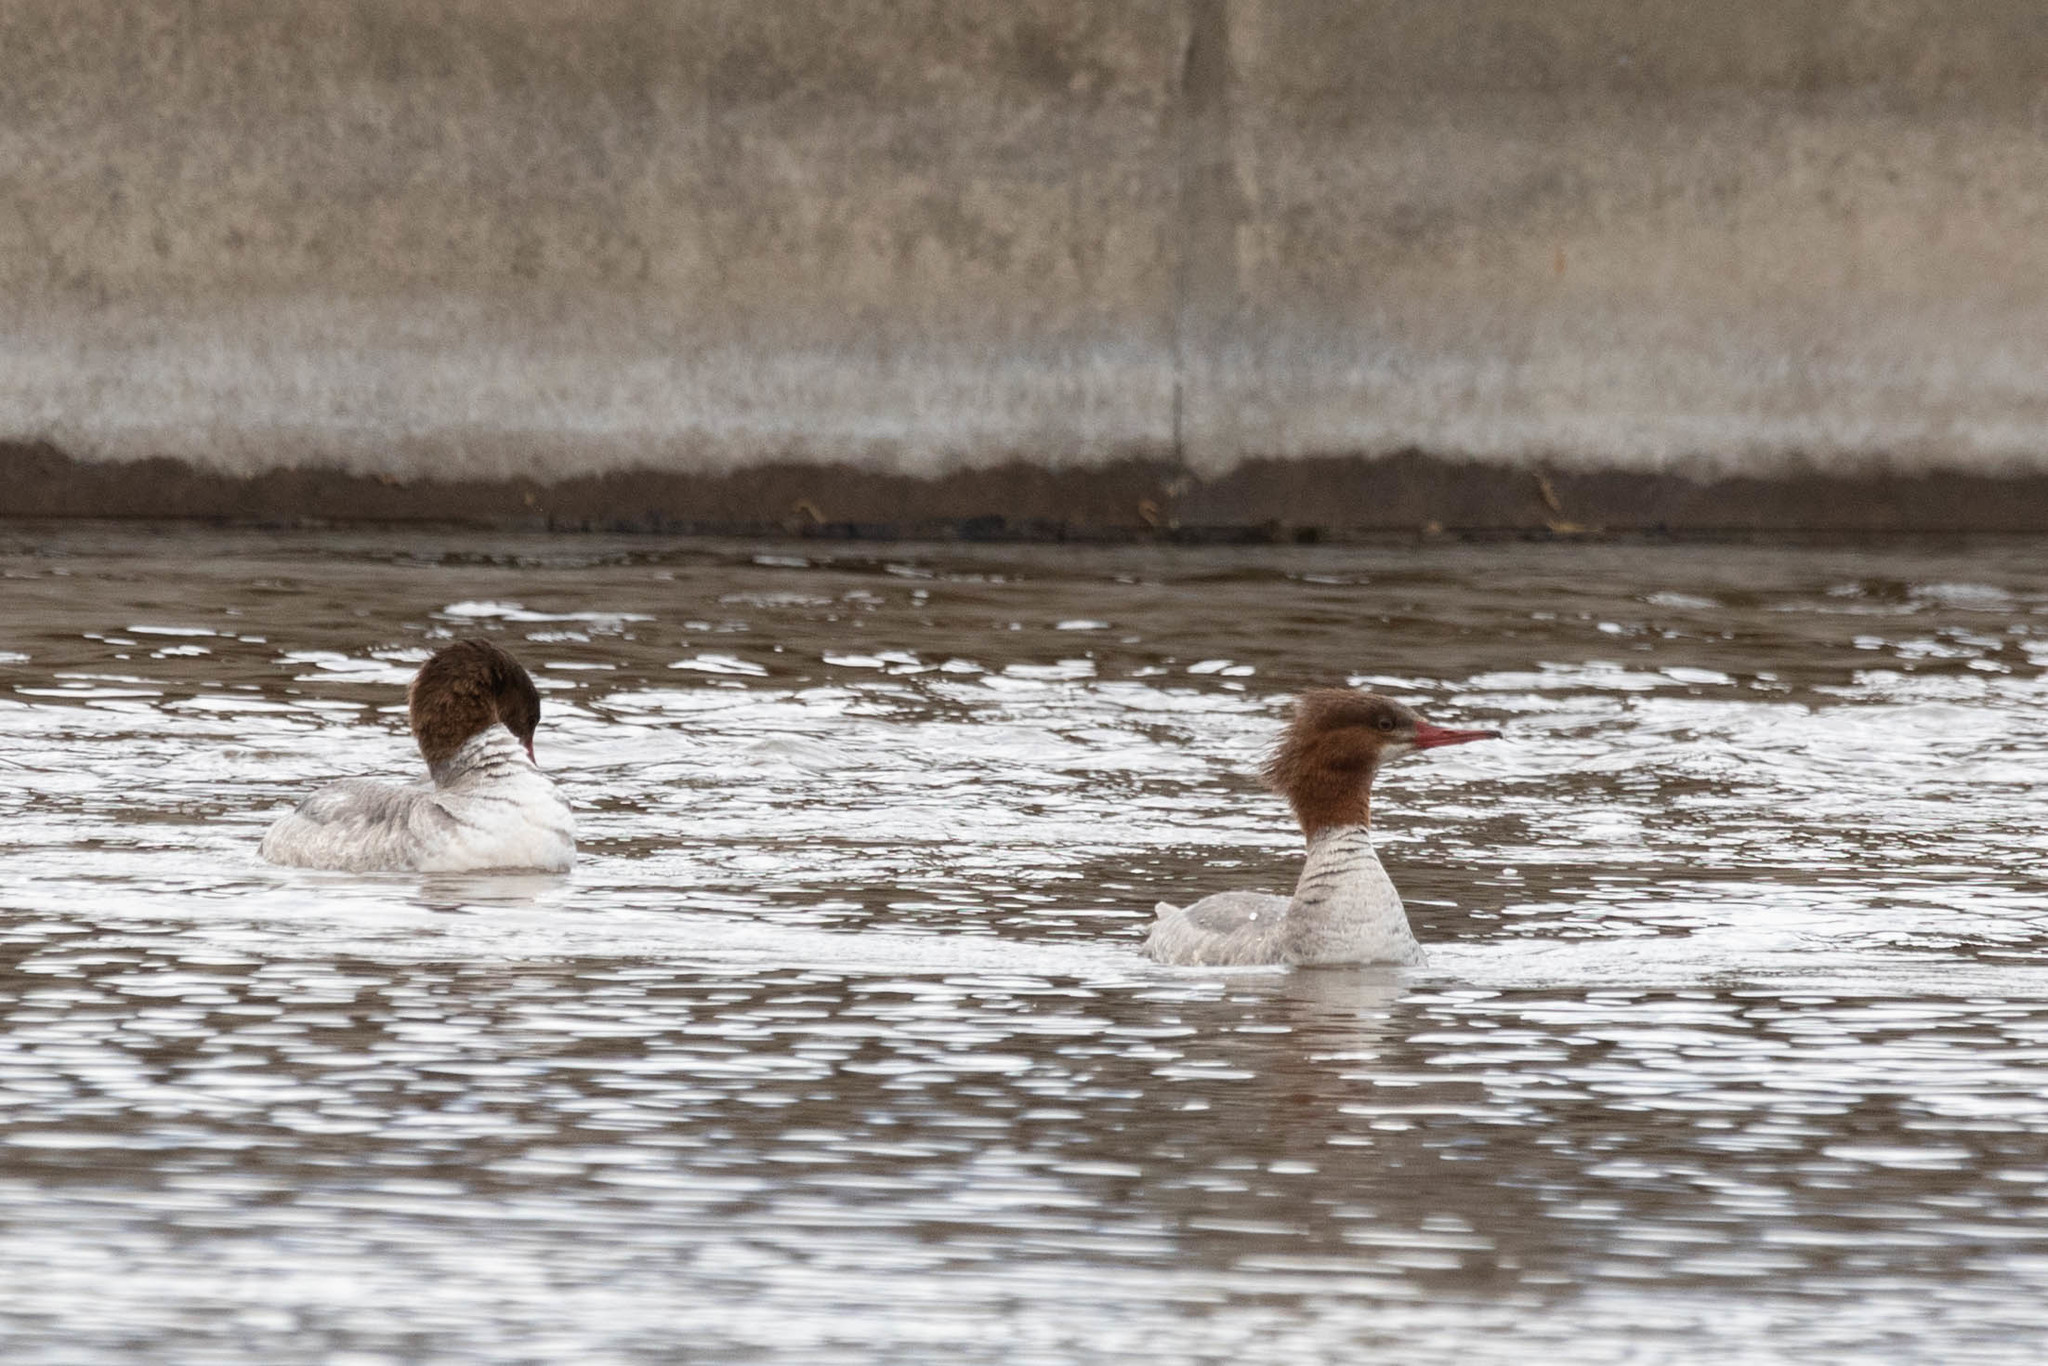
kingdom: Animalia
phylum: Chordata
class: Aves
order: Anseriformes
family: Anatidae
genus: Mergus
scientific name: Mergus merganser
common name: Common merganser
